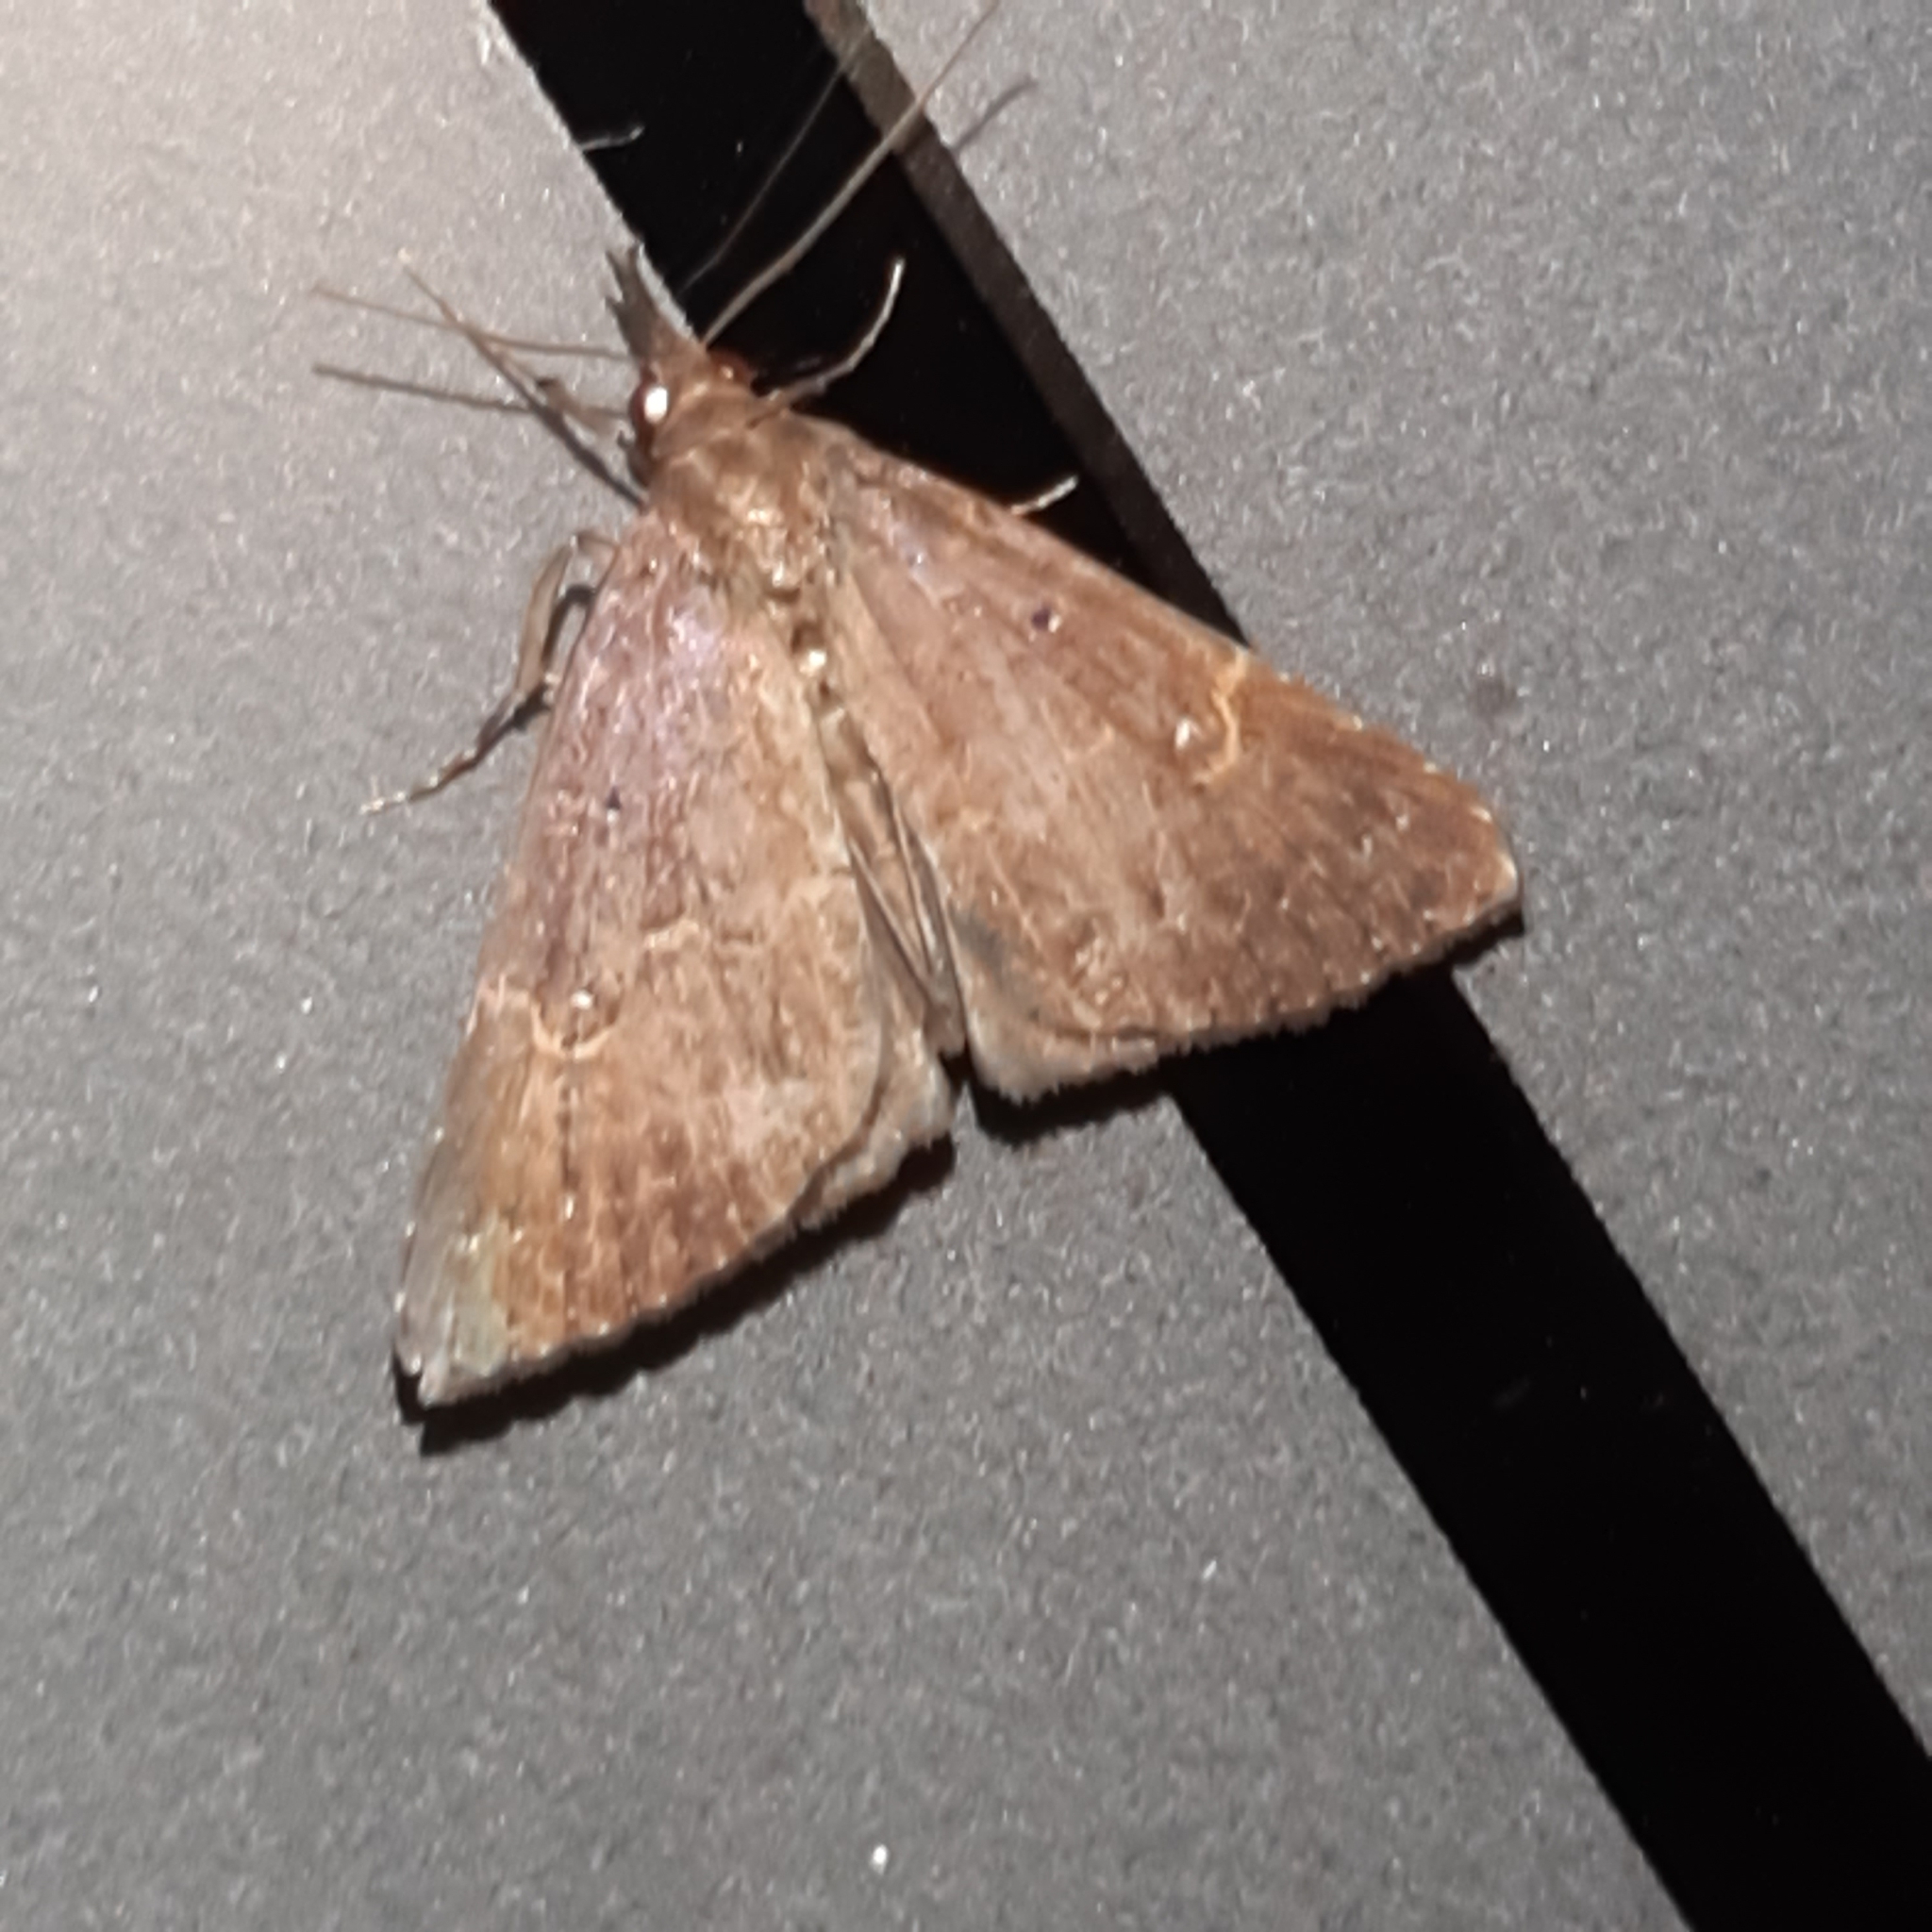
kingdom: Animalia
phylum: Arthropoda
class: Insecta
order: Lepidoptera
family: Erebidae
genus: Hypena
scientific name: Hypena peruvialis
